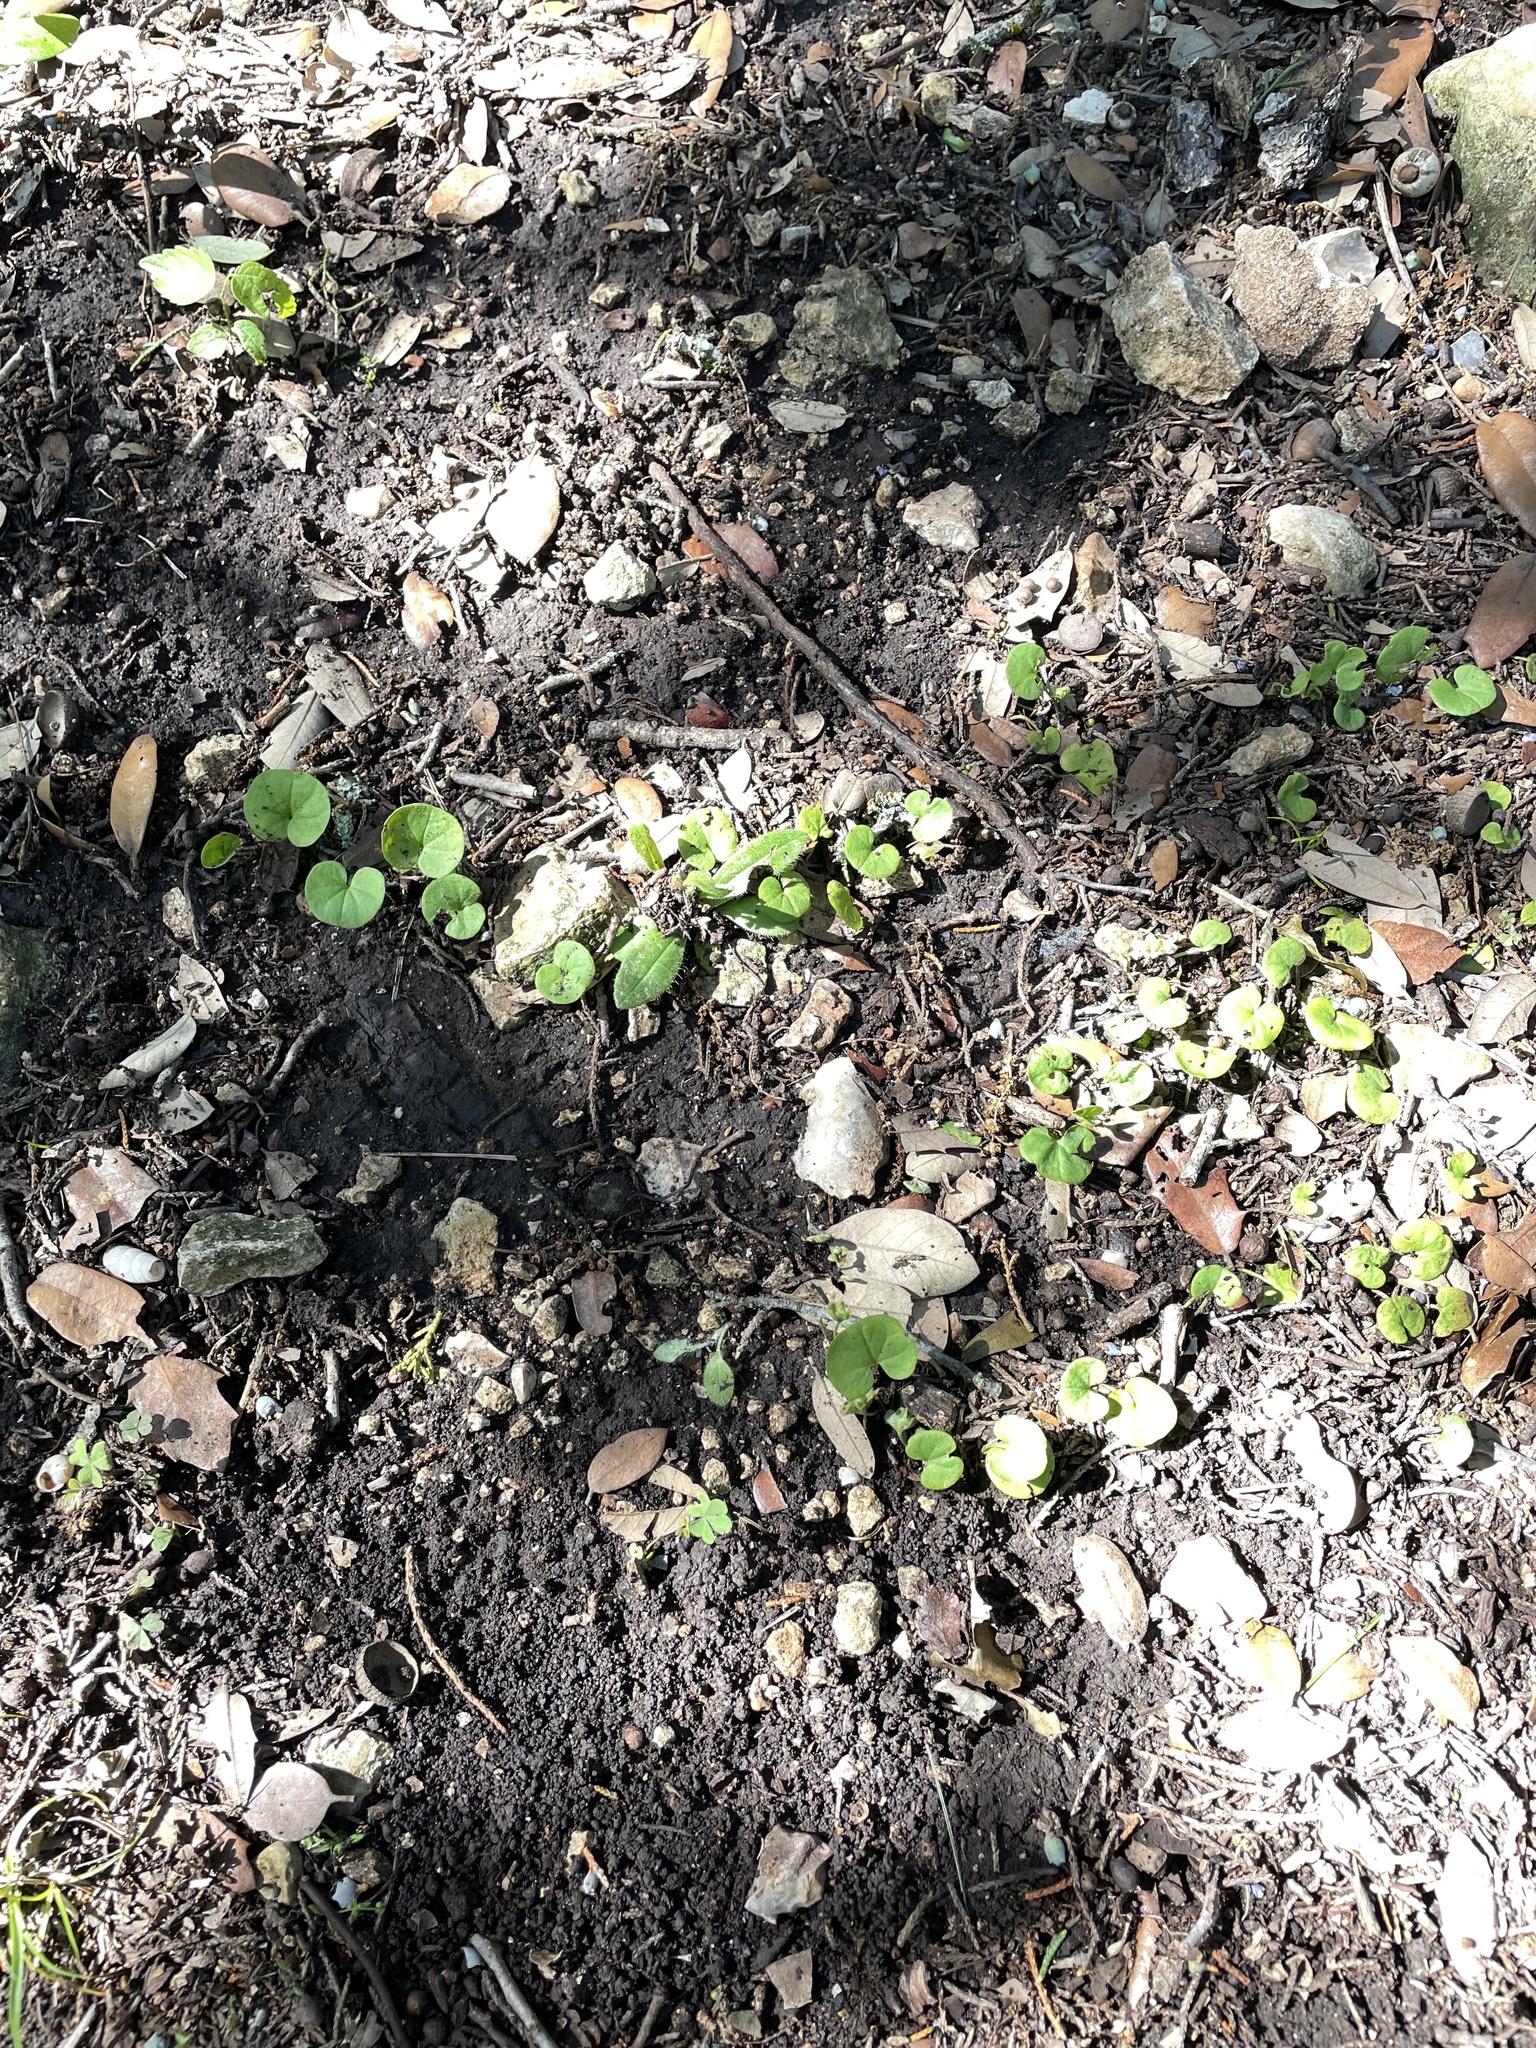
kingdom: Plantae
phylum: Tracheophyta
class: Magnoliopsida
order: Solanales
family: Convolvulaceae
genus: Dichondra
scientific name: Dichondra carolinensis
